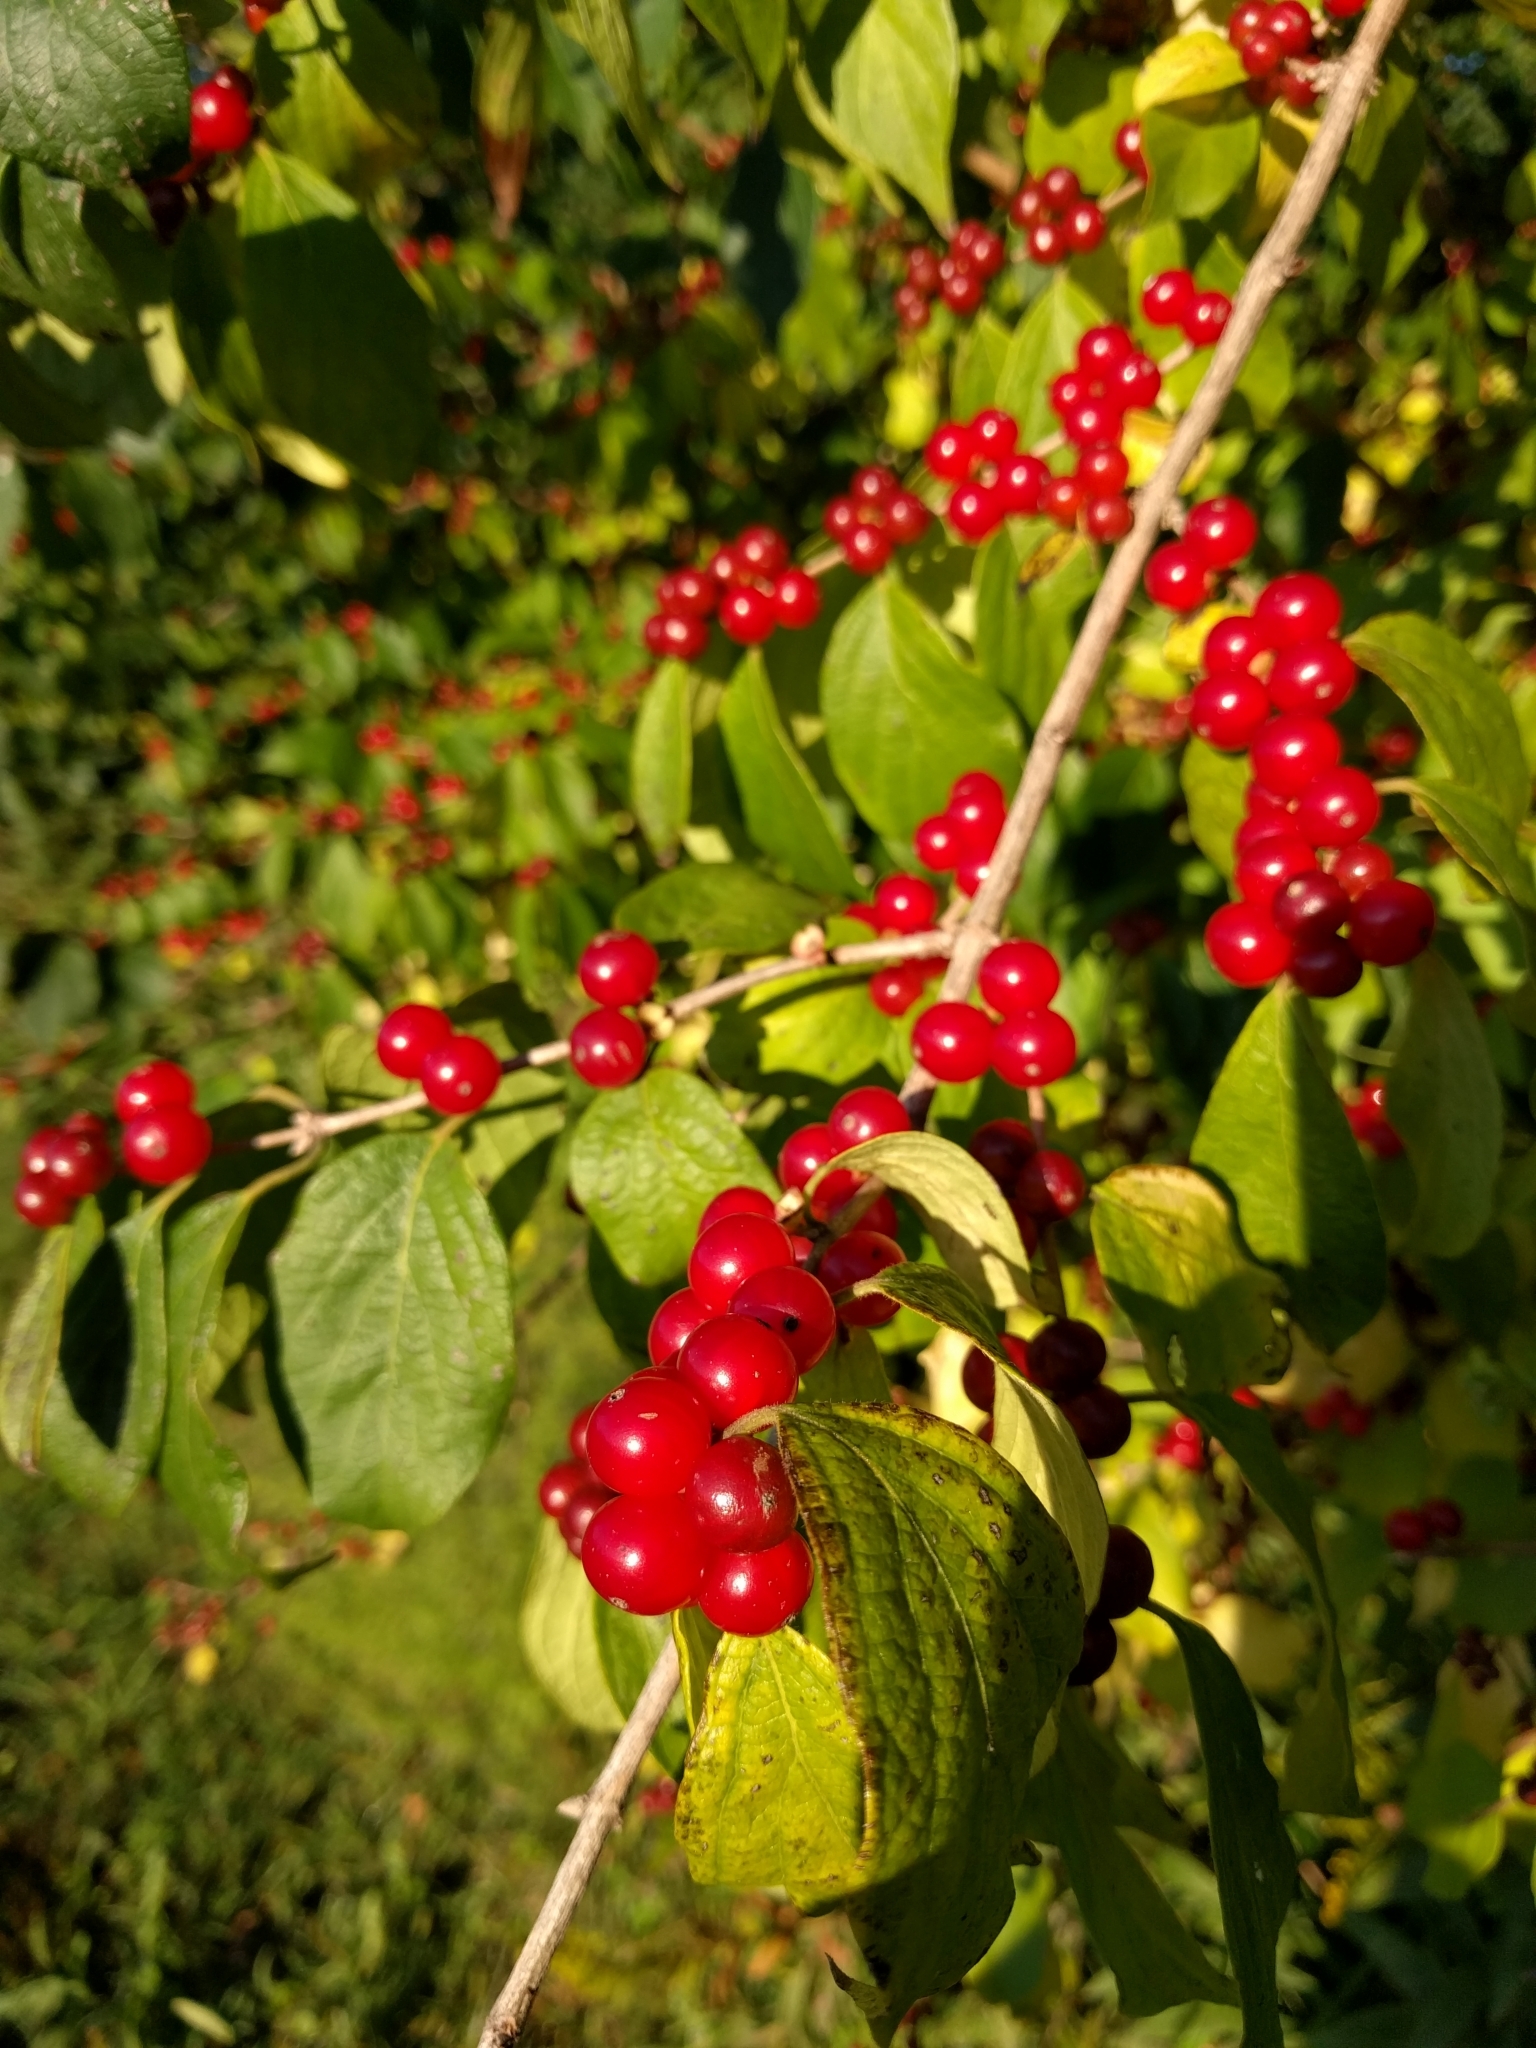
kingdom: Plantae
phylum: Tracheophyta
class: Magnoliopsida
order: Dipsacales
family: Caprifoliaceae
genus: Lonicera
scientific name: Lonicera maackii
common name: Amur honeysuckle
